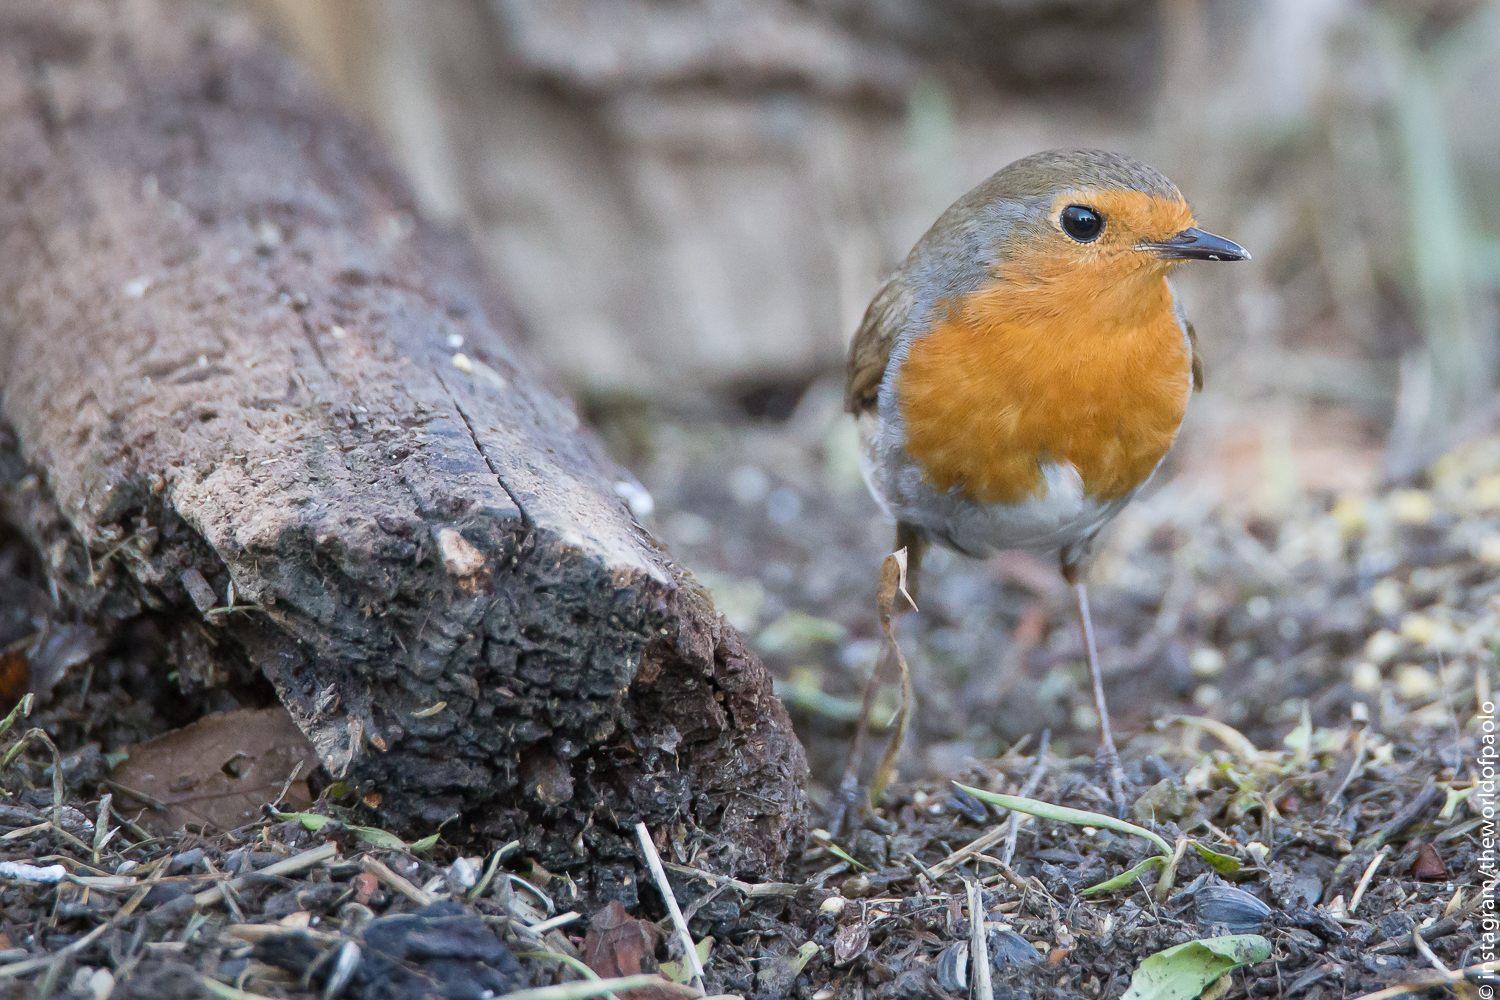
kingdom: Animalia
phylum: Chordata
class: Aves
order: Passeriformes
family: Muscicapidae
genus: Erithacus
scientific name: Erithacus rubecula
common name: European robin
